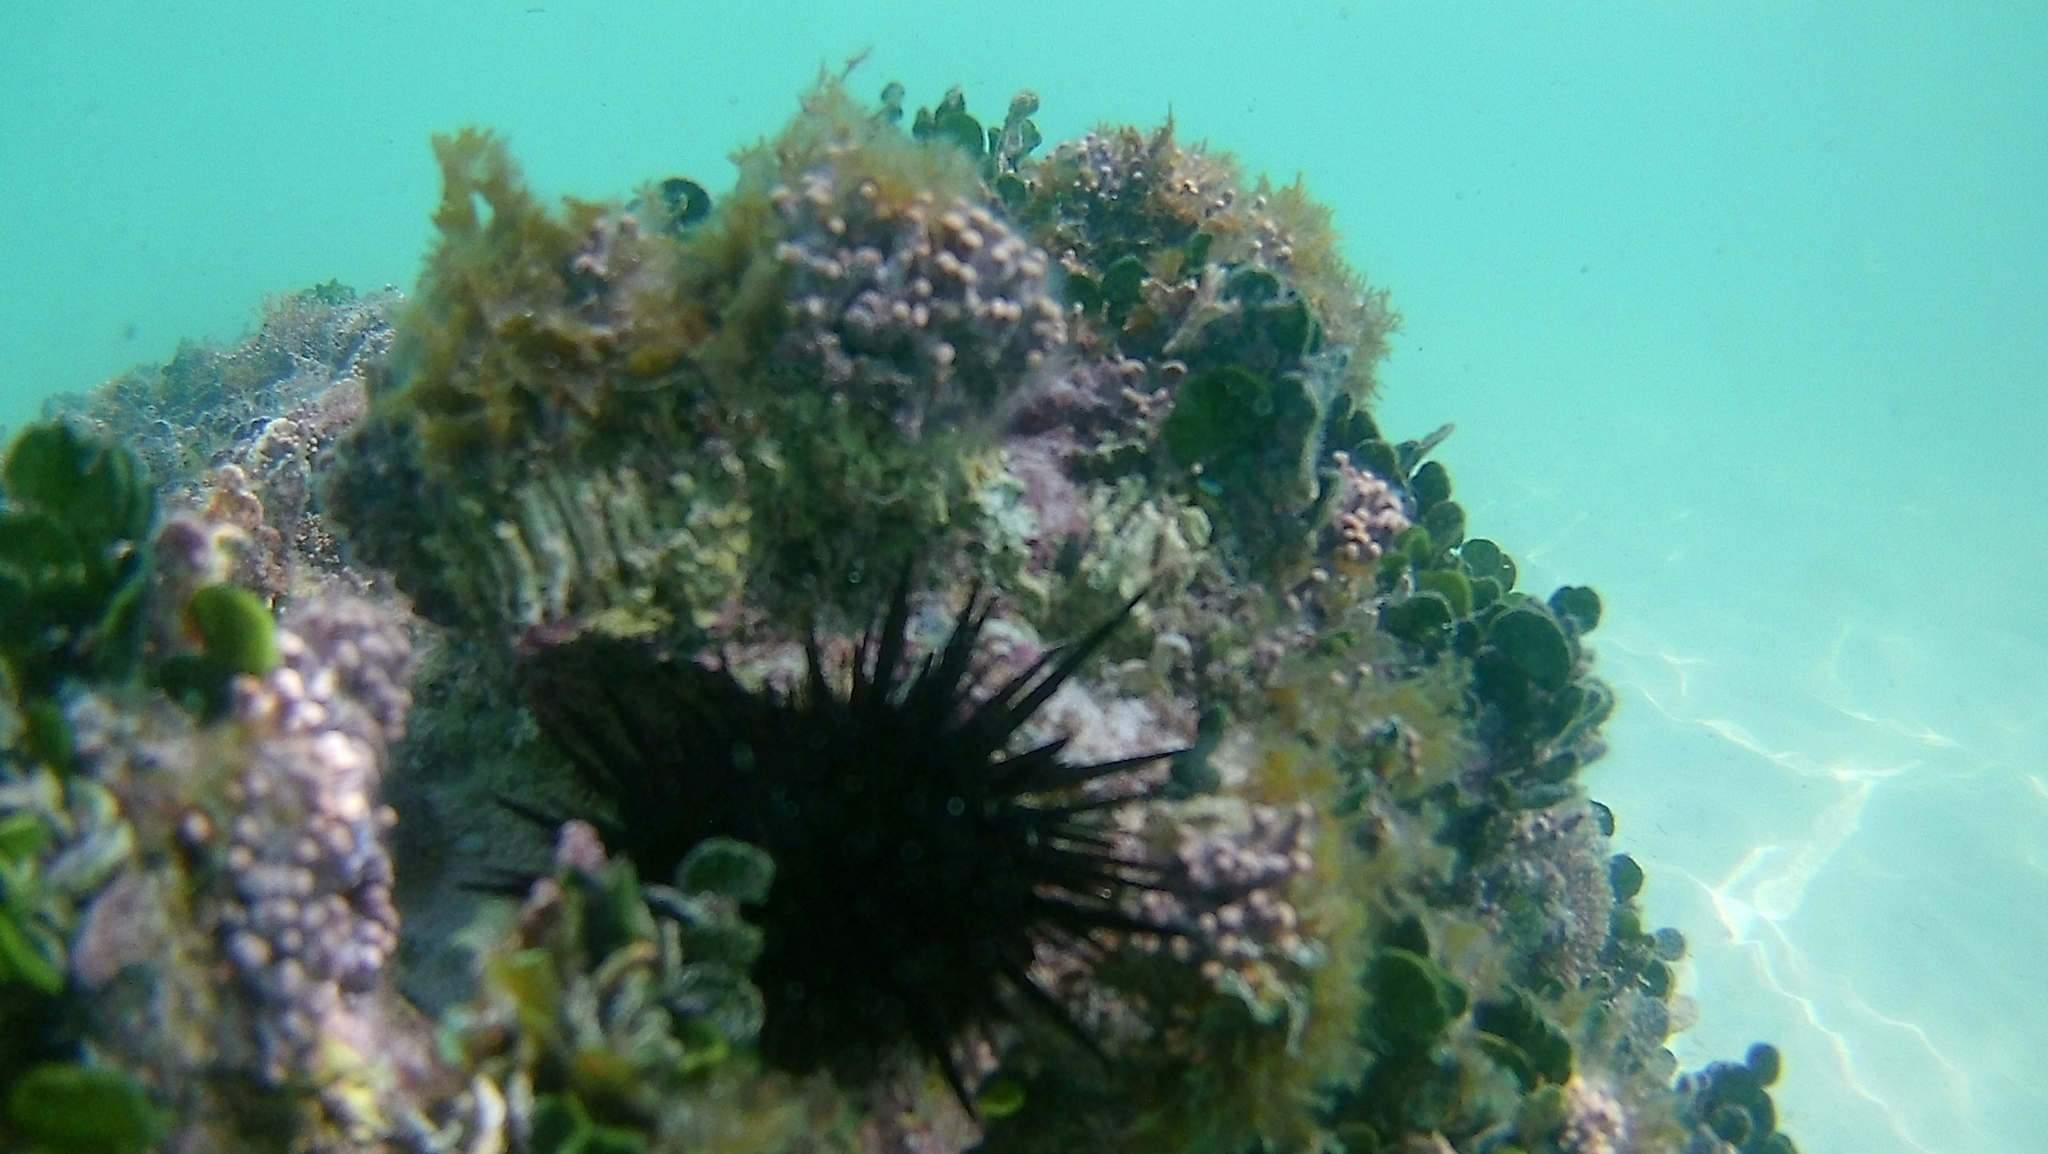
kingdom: Animalia
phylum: Echinodermata
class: Echinoidea
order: Diadematoida
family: Diadematidae
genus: Diadema
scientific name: Diadema antillarum
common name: Spiny urchin
